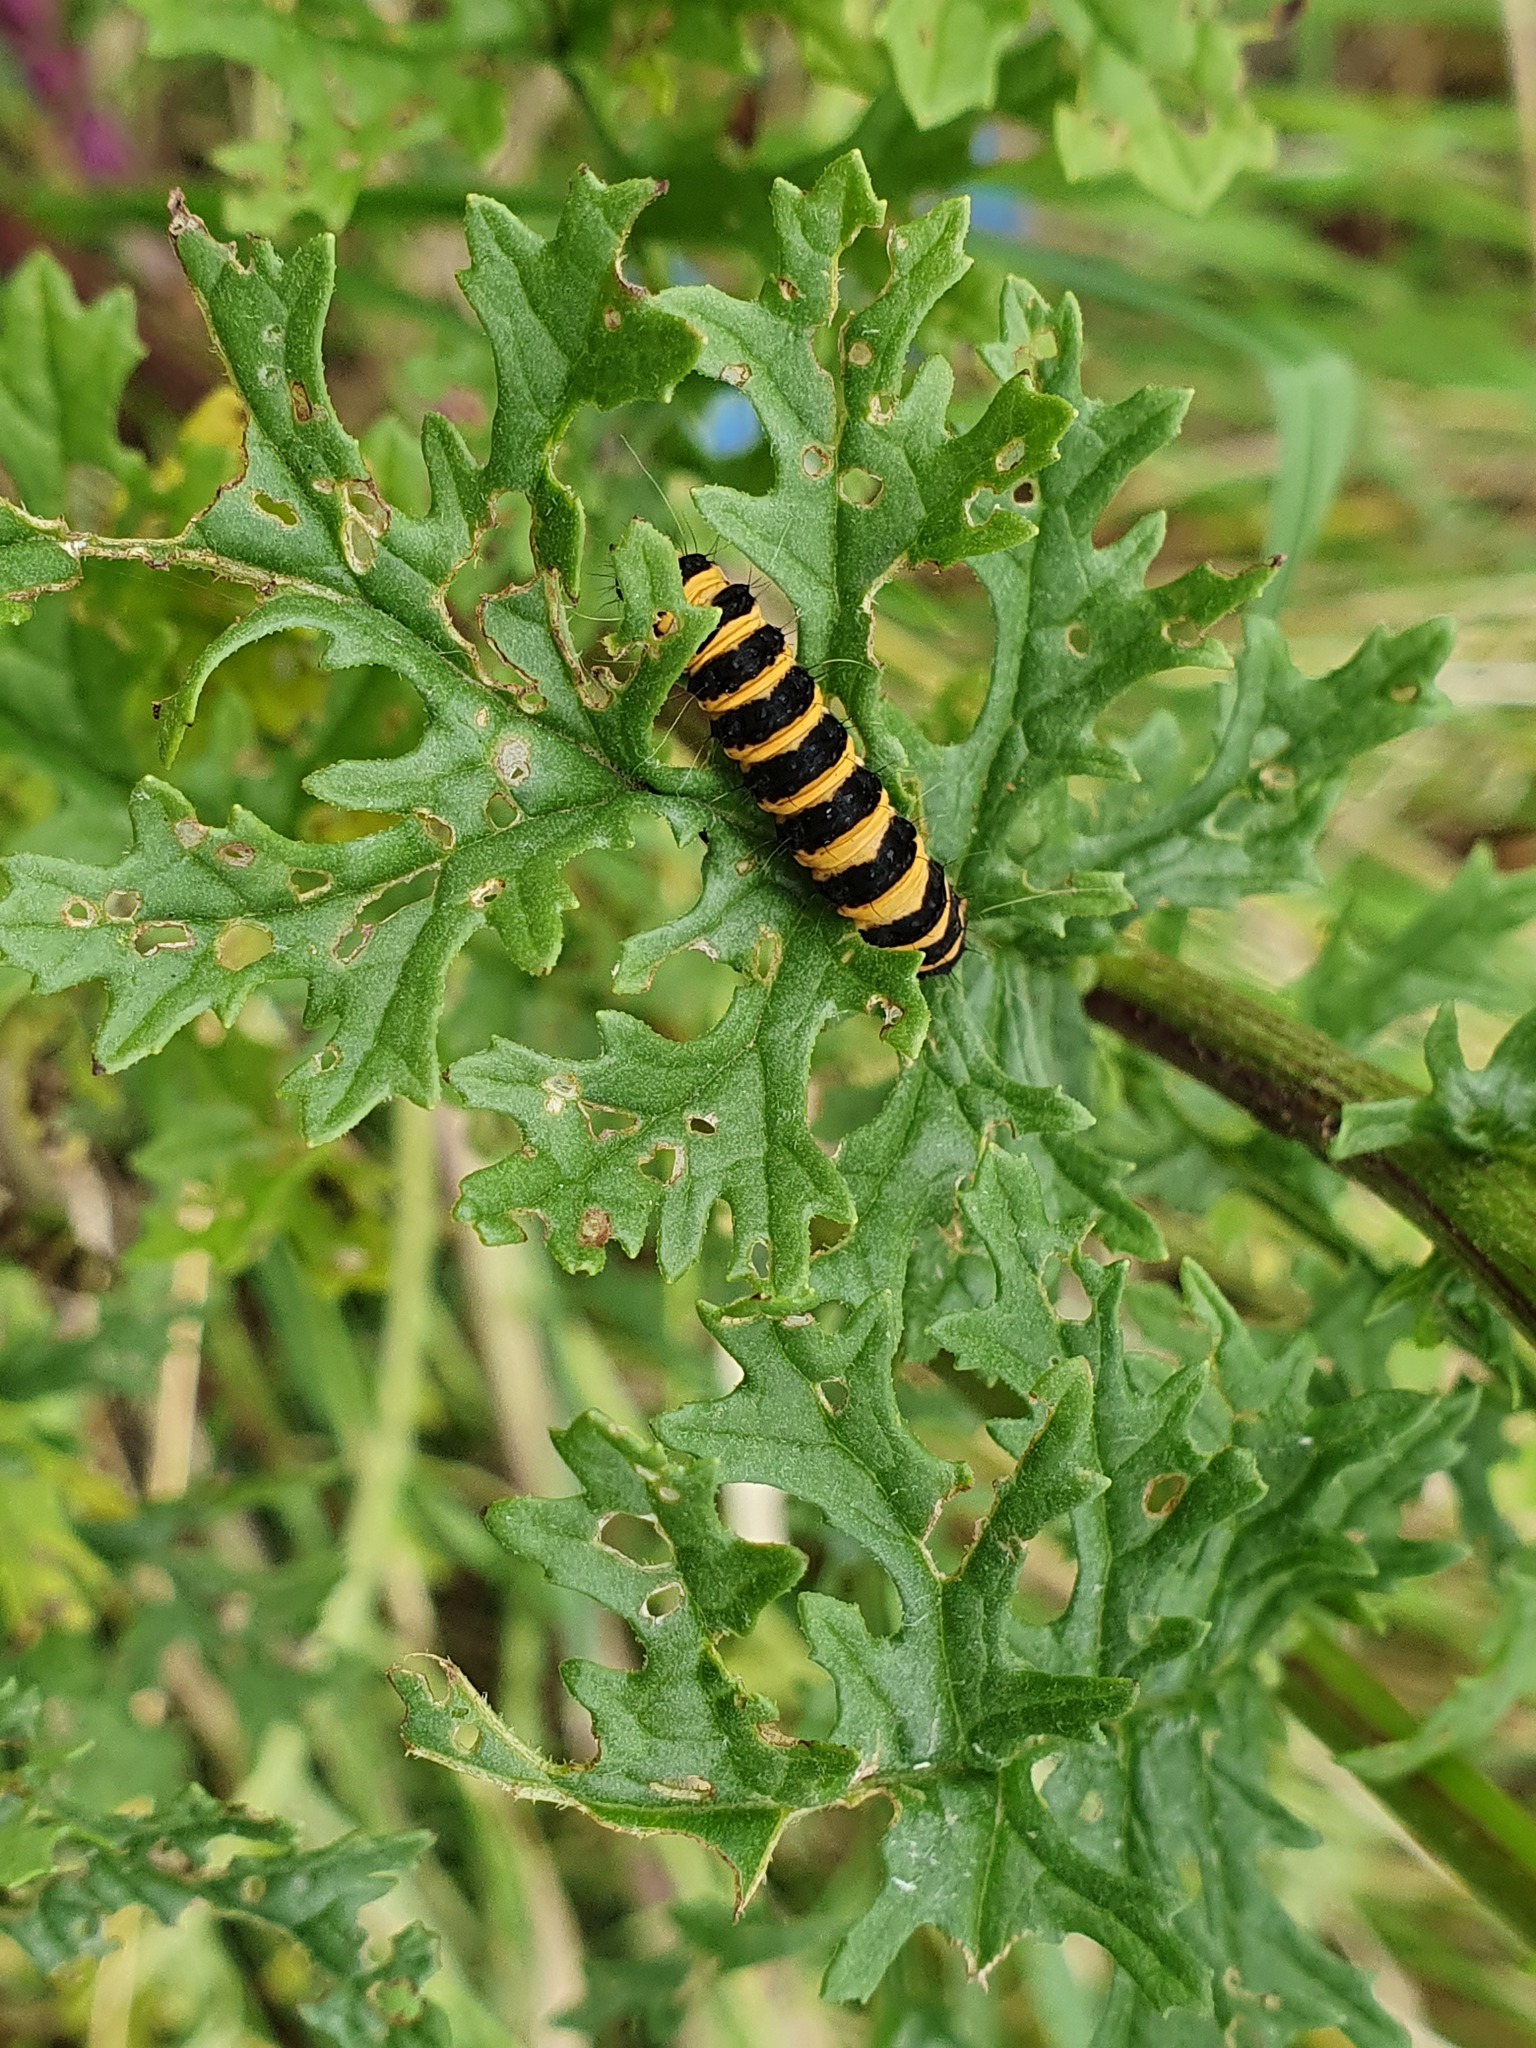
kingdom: Animalia
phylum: Arthropoda
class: Insecta
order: Lepidoptera
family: Erebidae
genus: Tyria
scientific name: Tyria jacobaeae
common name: Cinnabar
